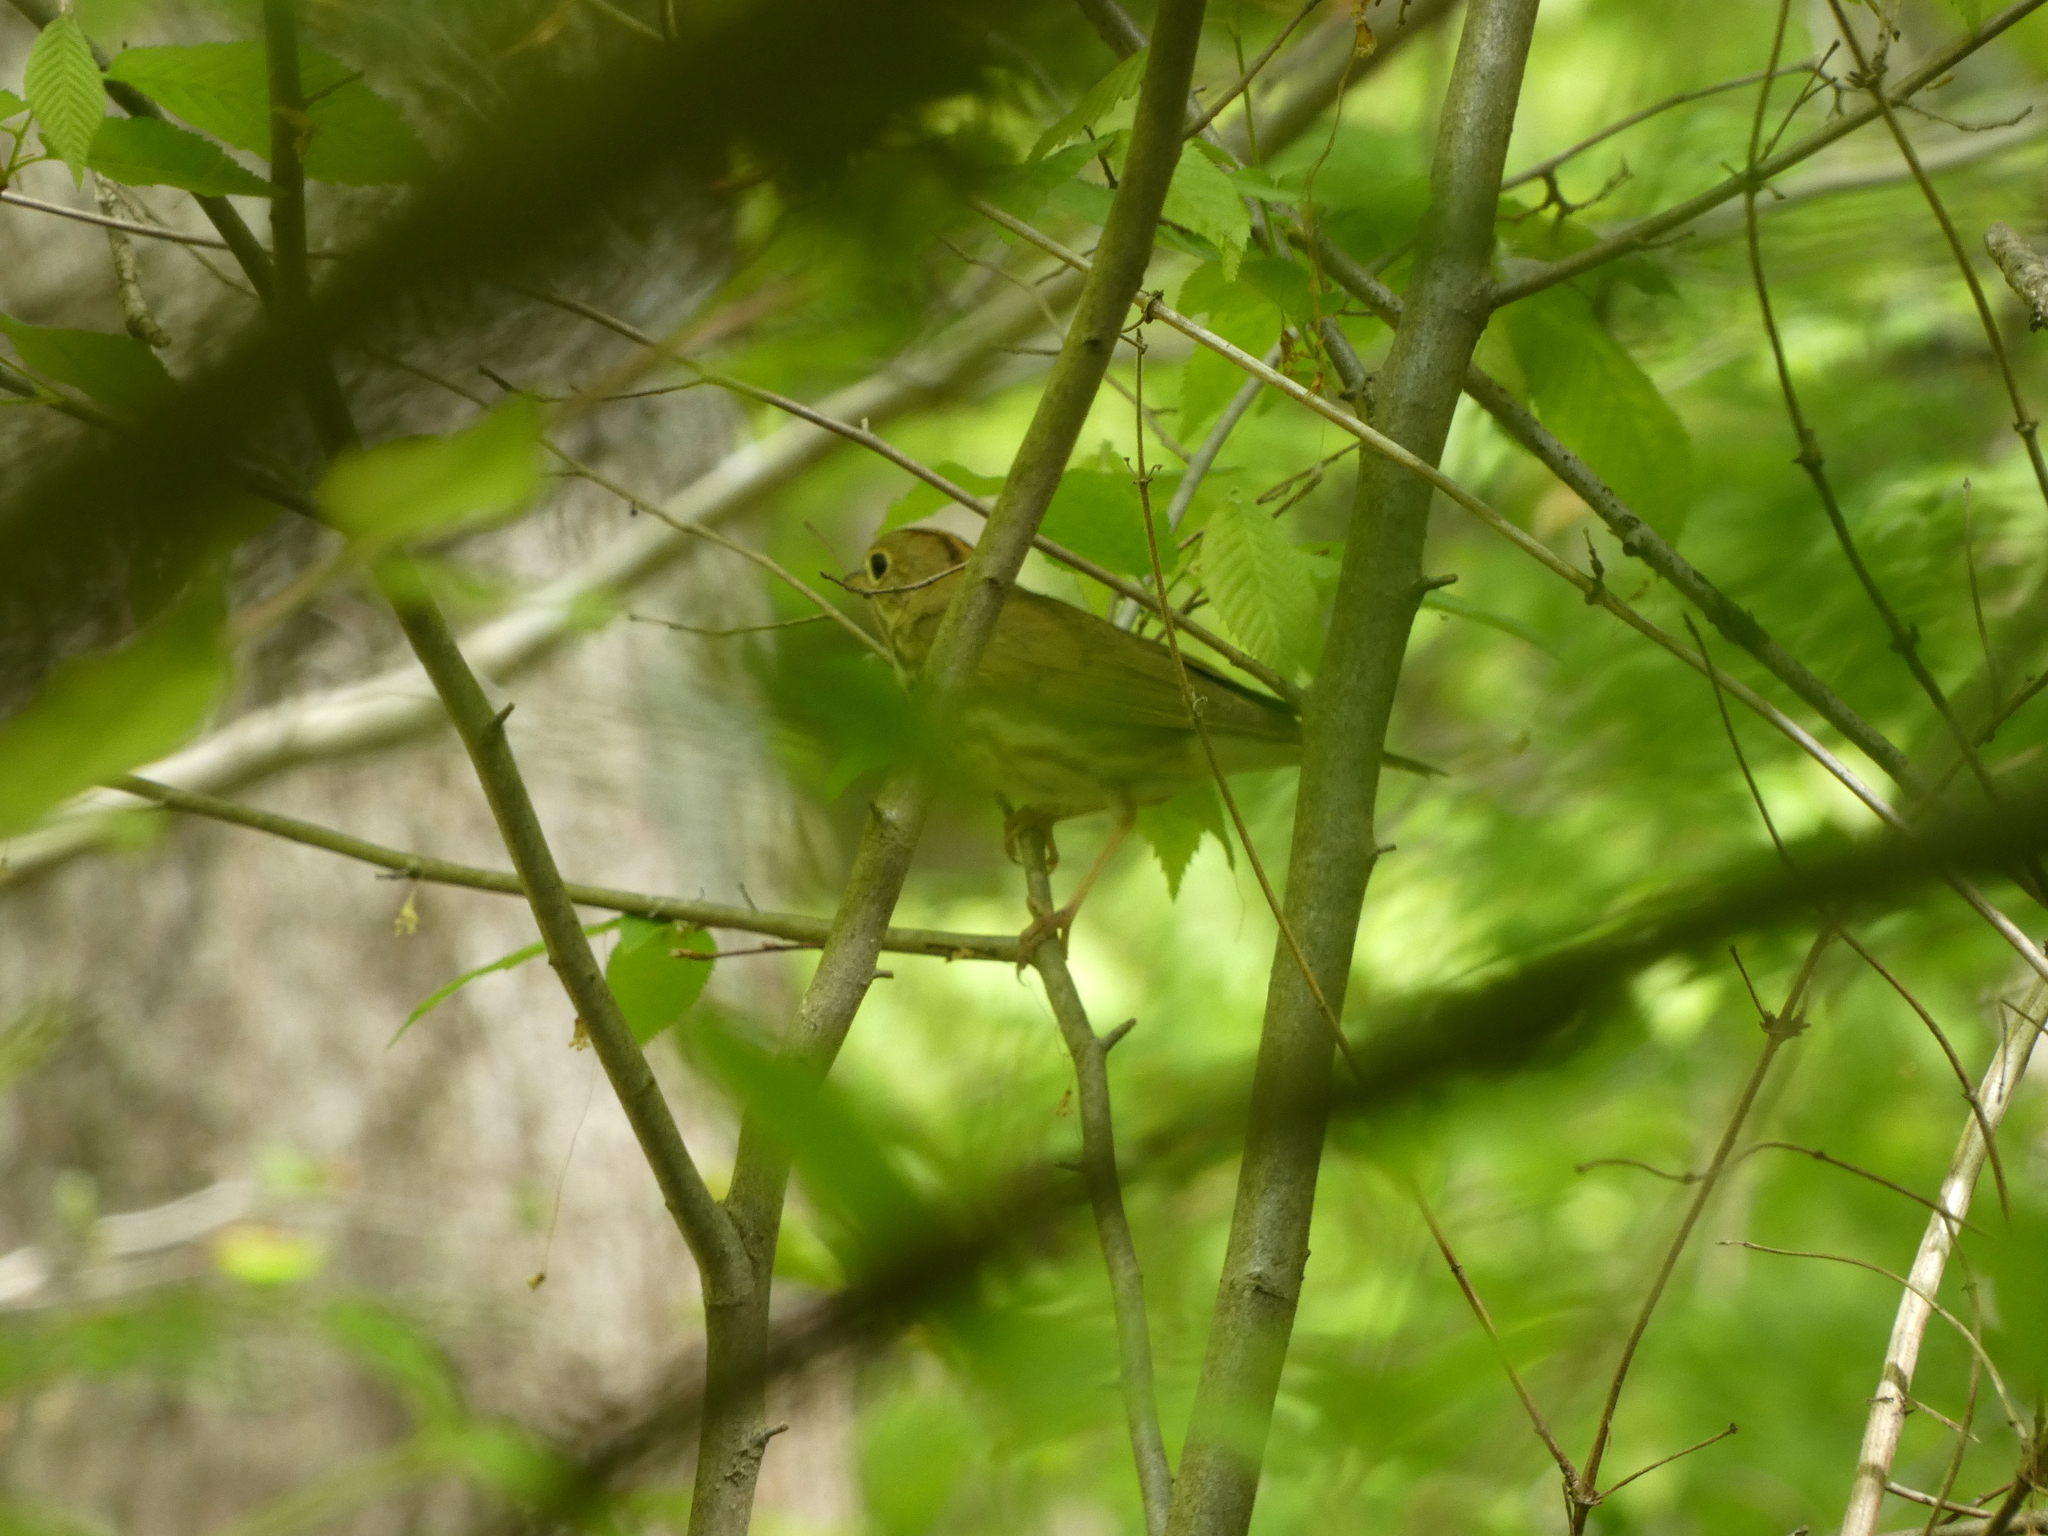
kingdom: Animalia
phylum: Chordata
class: Aves
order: Passeriformes
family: Parulidae
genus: Seiurus
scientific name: Seiurus aurocapilla
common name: Ovenbird
